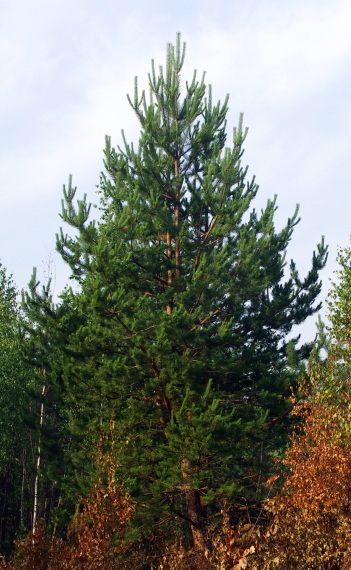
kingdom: Plantae
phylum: Tracheophyta
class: Pinopsida
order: Pinales
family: Pinaceae
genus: Pinus
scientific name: Pinus sylvestris
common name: Scots pine
